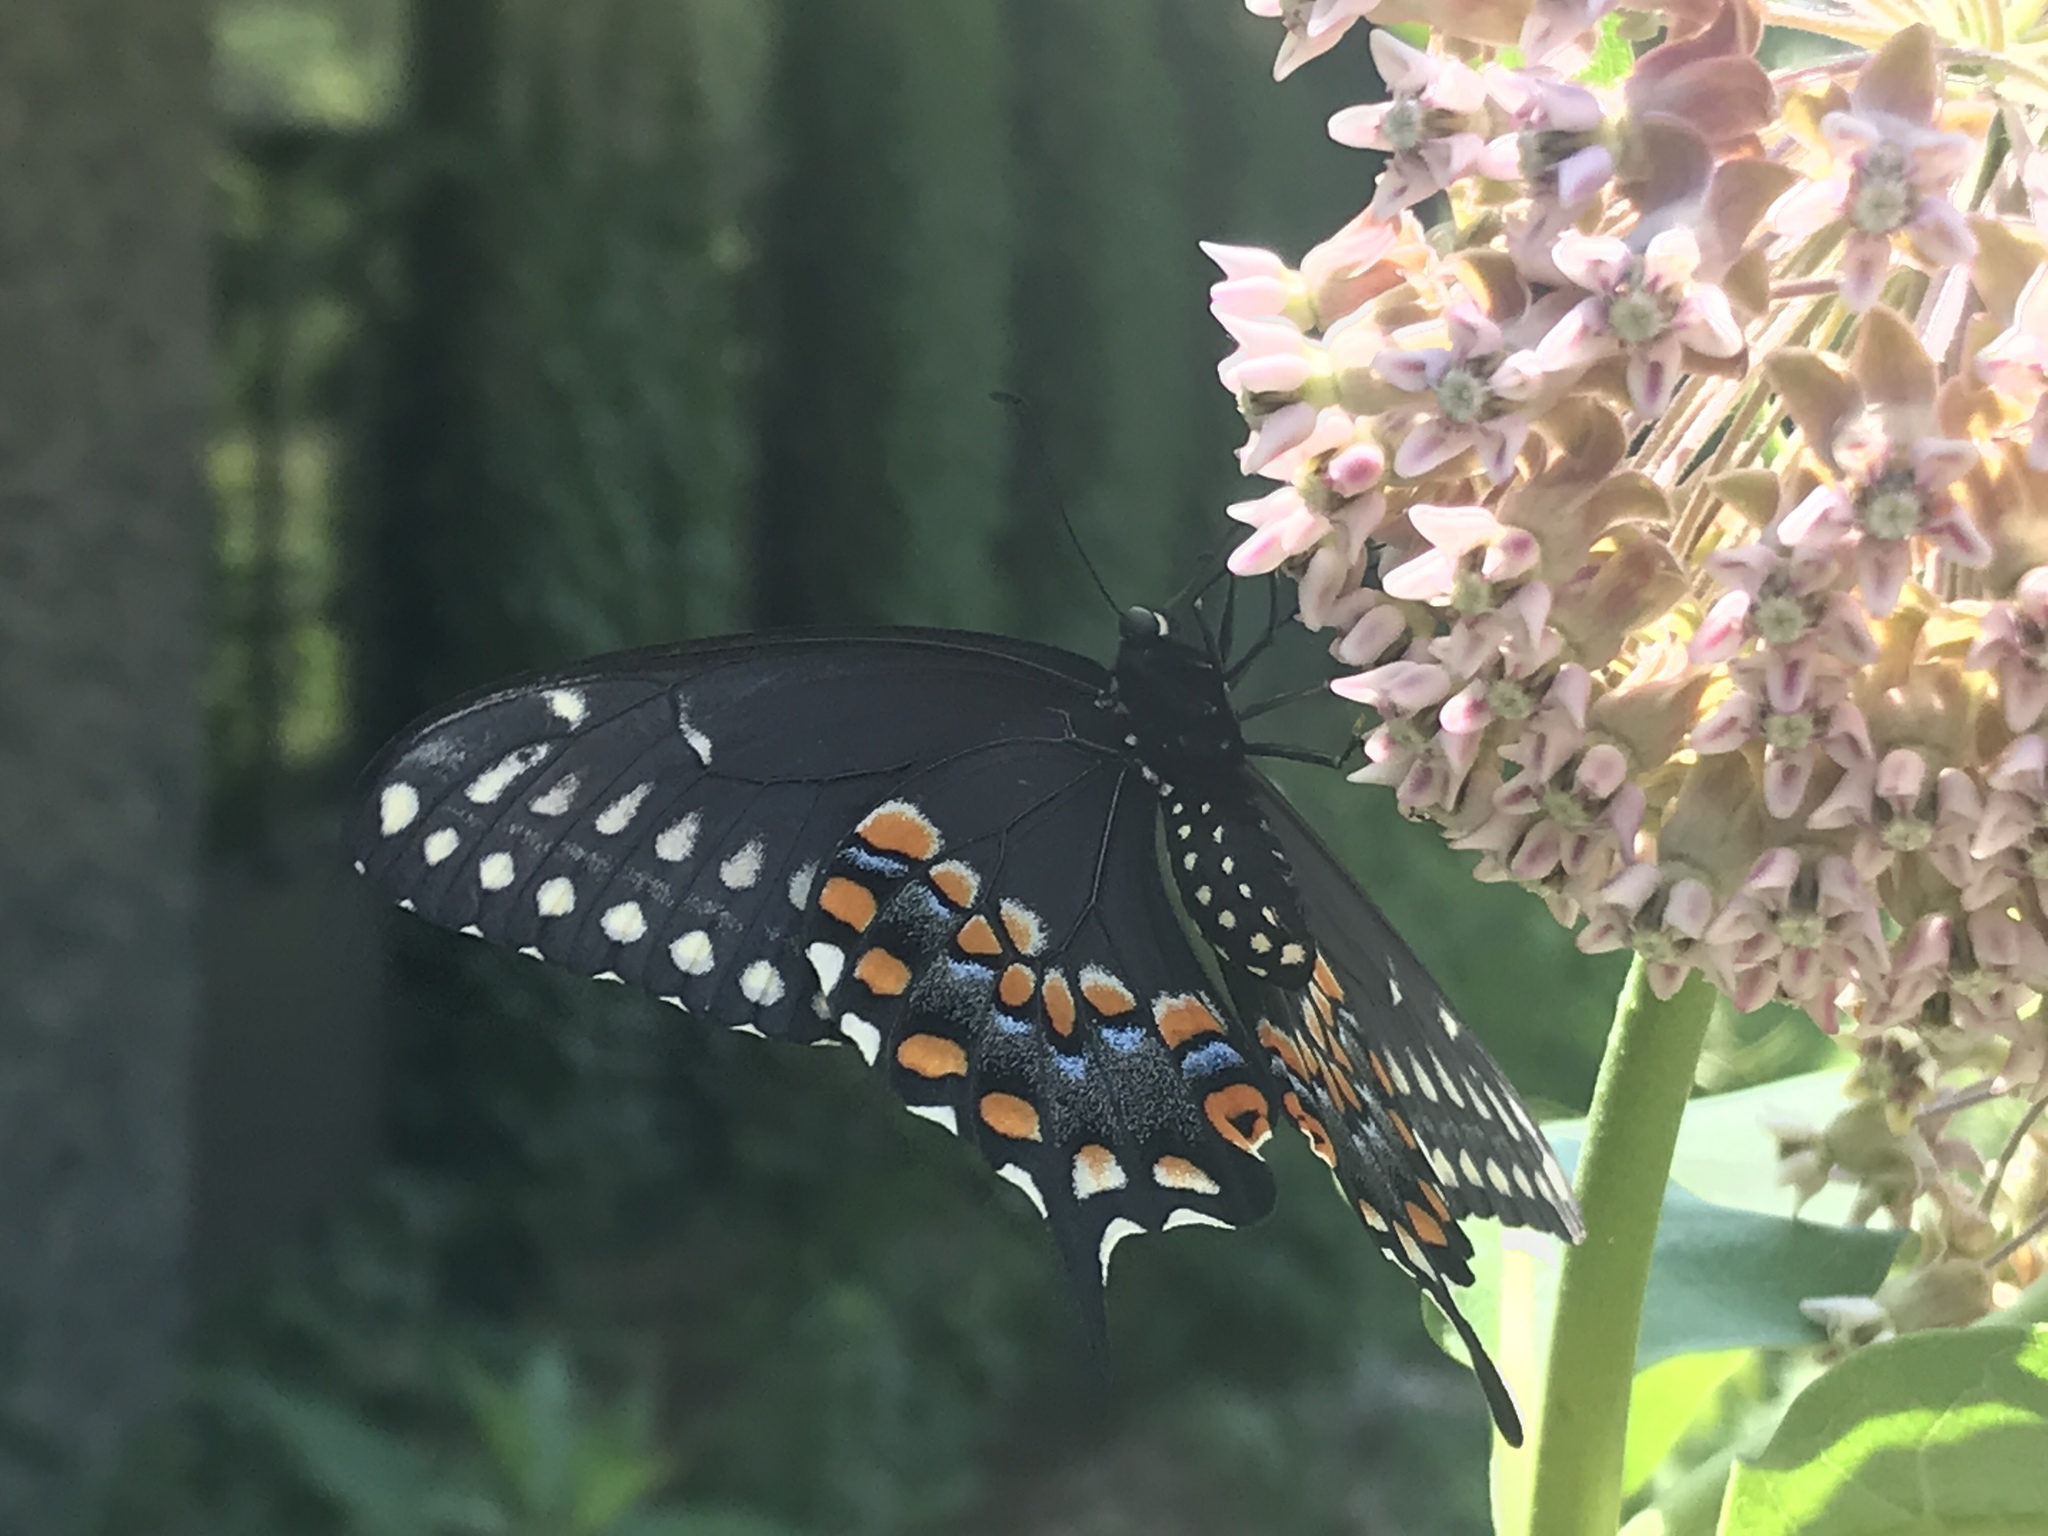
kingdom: Animalia
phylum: Arthropoda
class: Insecta
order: Lepidoptera
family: Papilionidae
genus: Papilio
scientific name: Papilio polyxenes
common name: Black swallowtail
